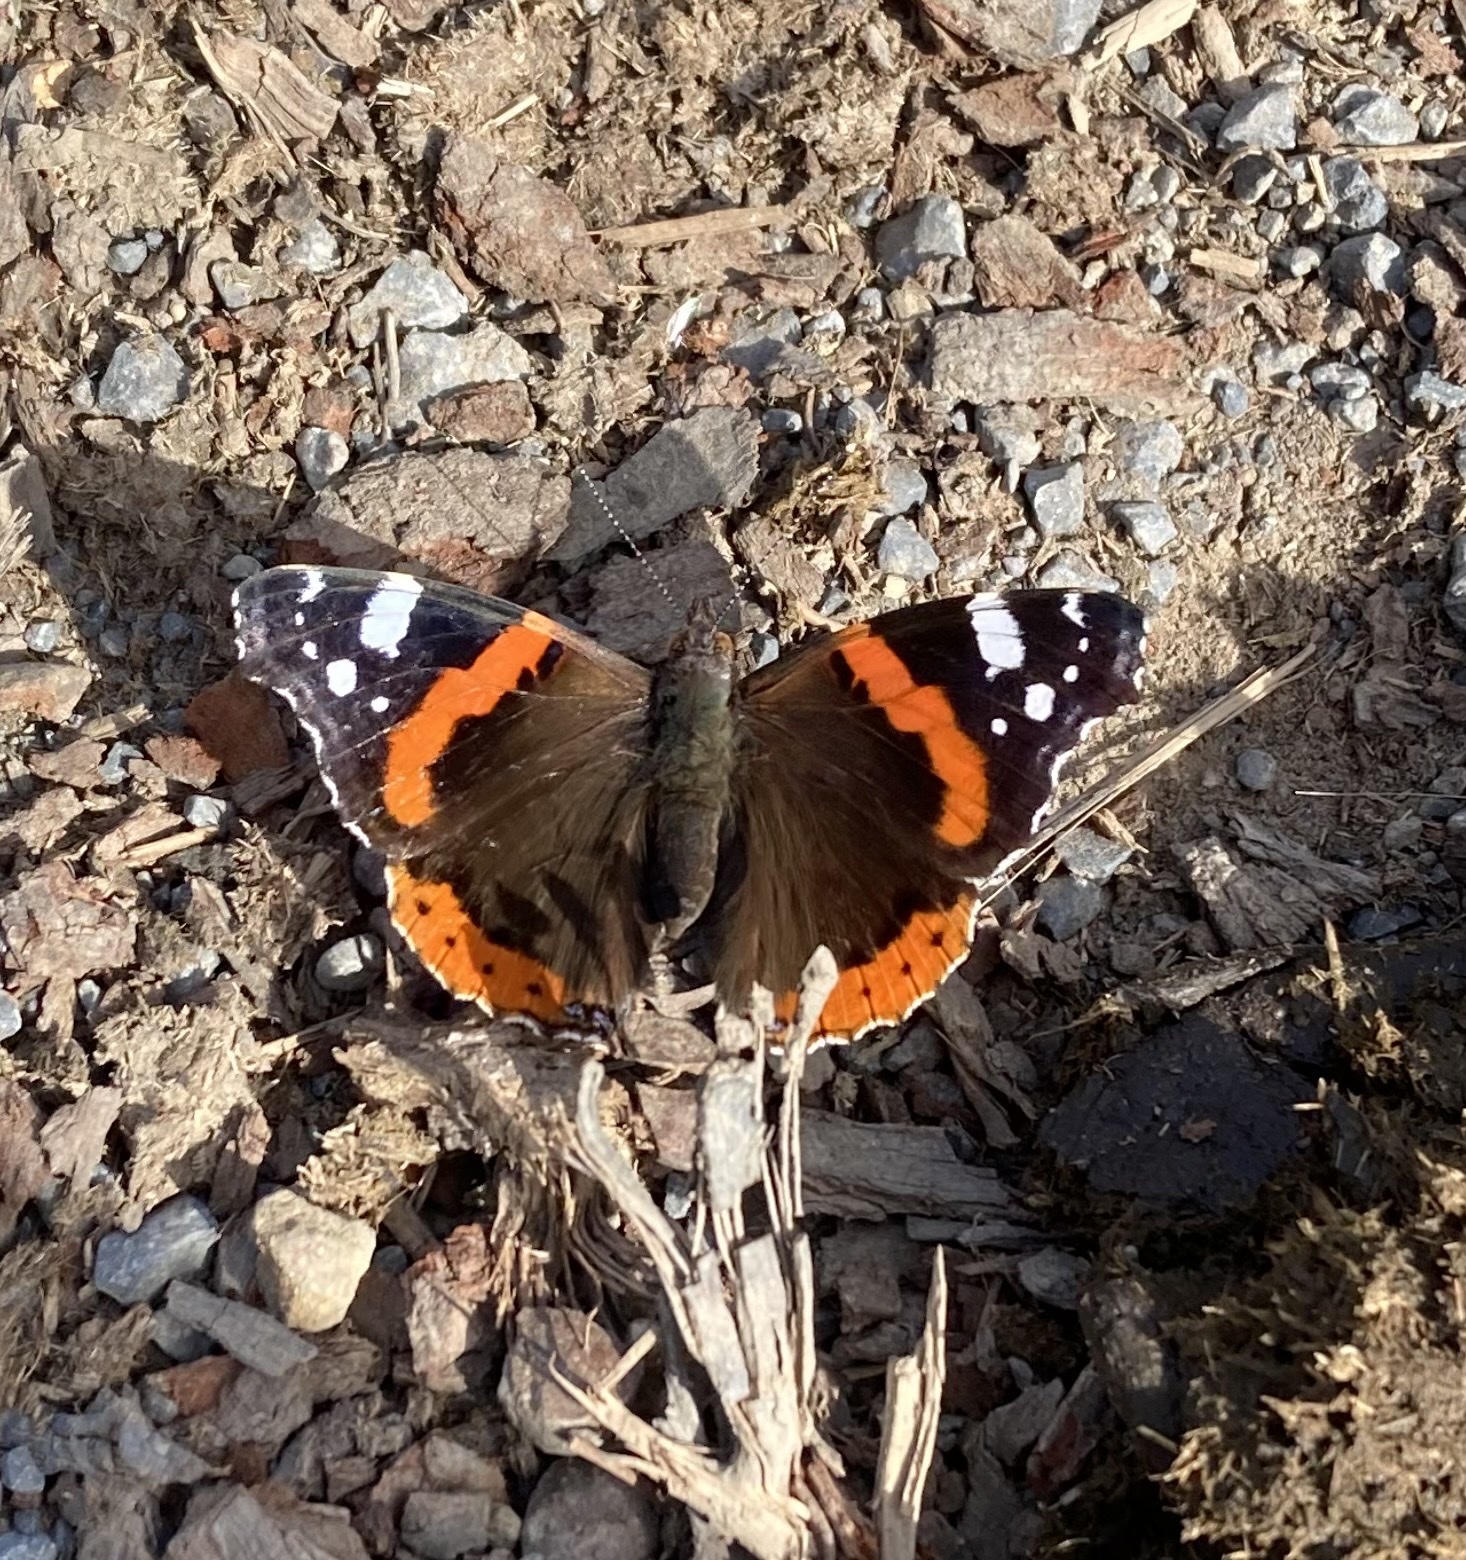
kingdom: Animalia
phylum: Arthropoda
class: Insecta
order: Lepidoptera
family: Nymphalidae
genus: Vanessa
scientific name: Vanessa atalanta
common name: Red admiral
